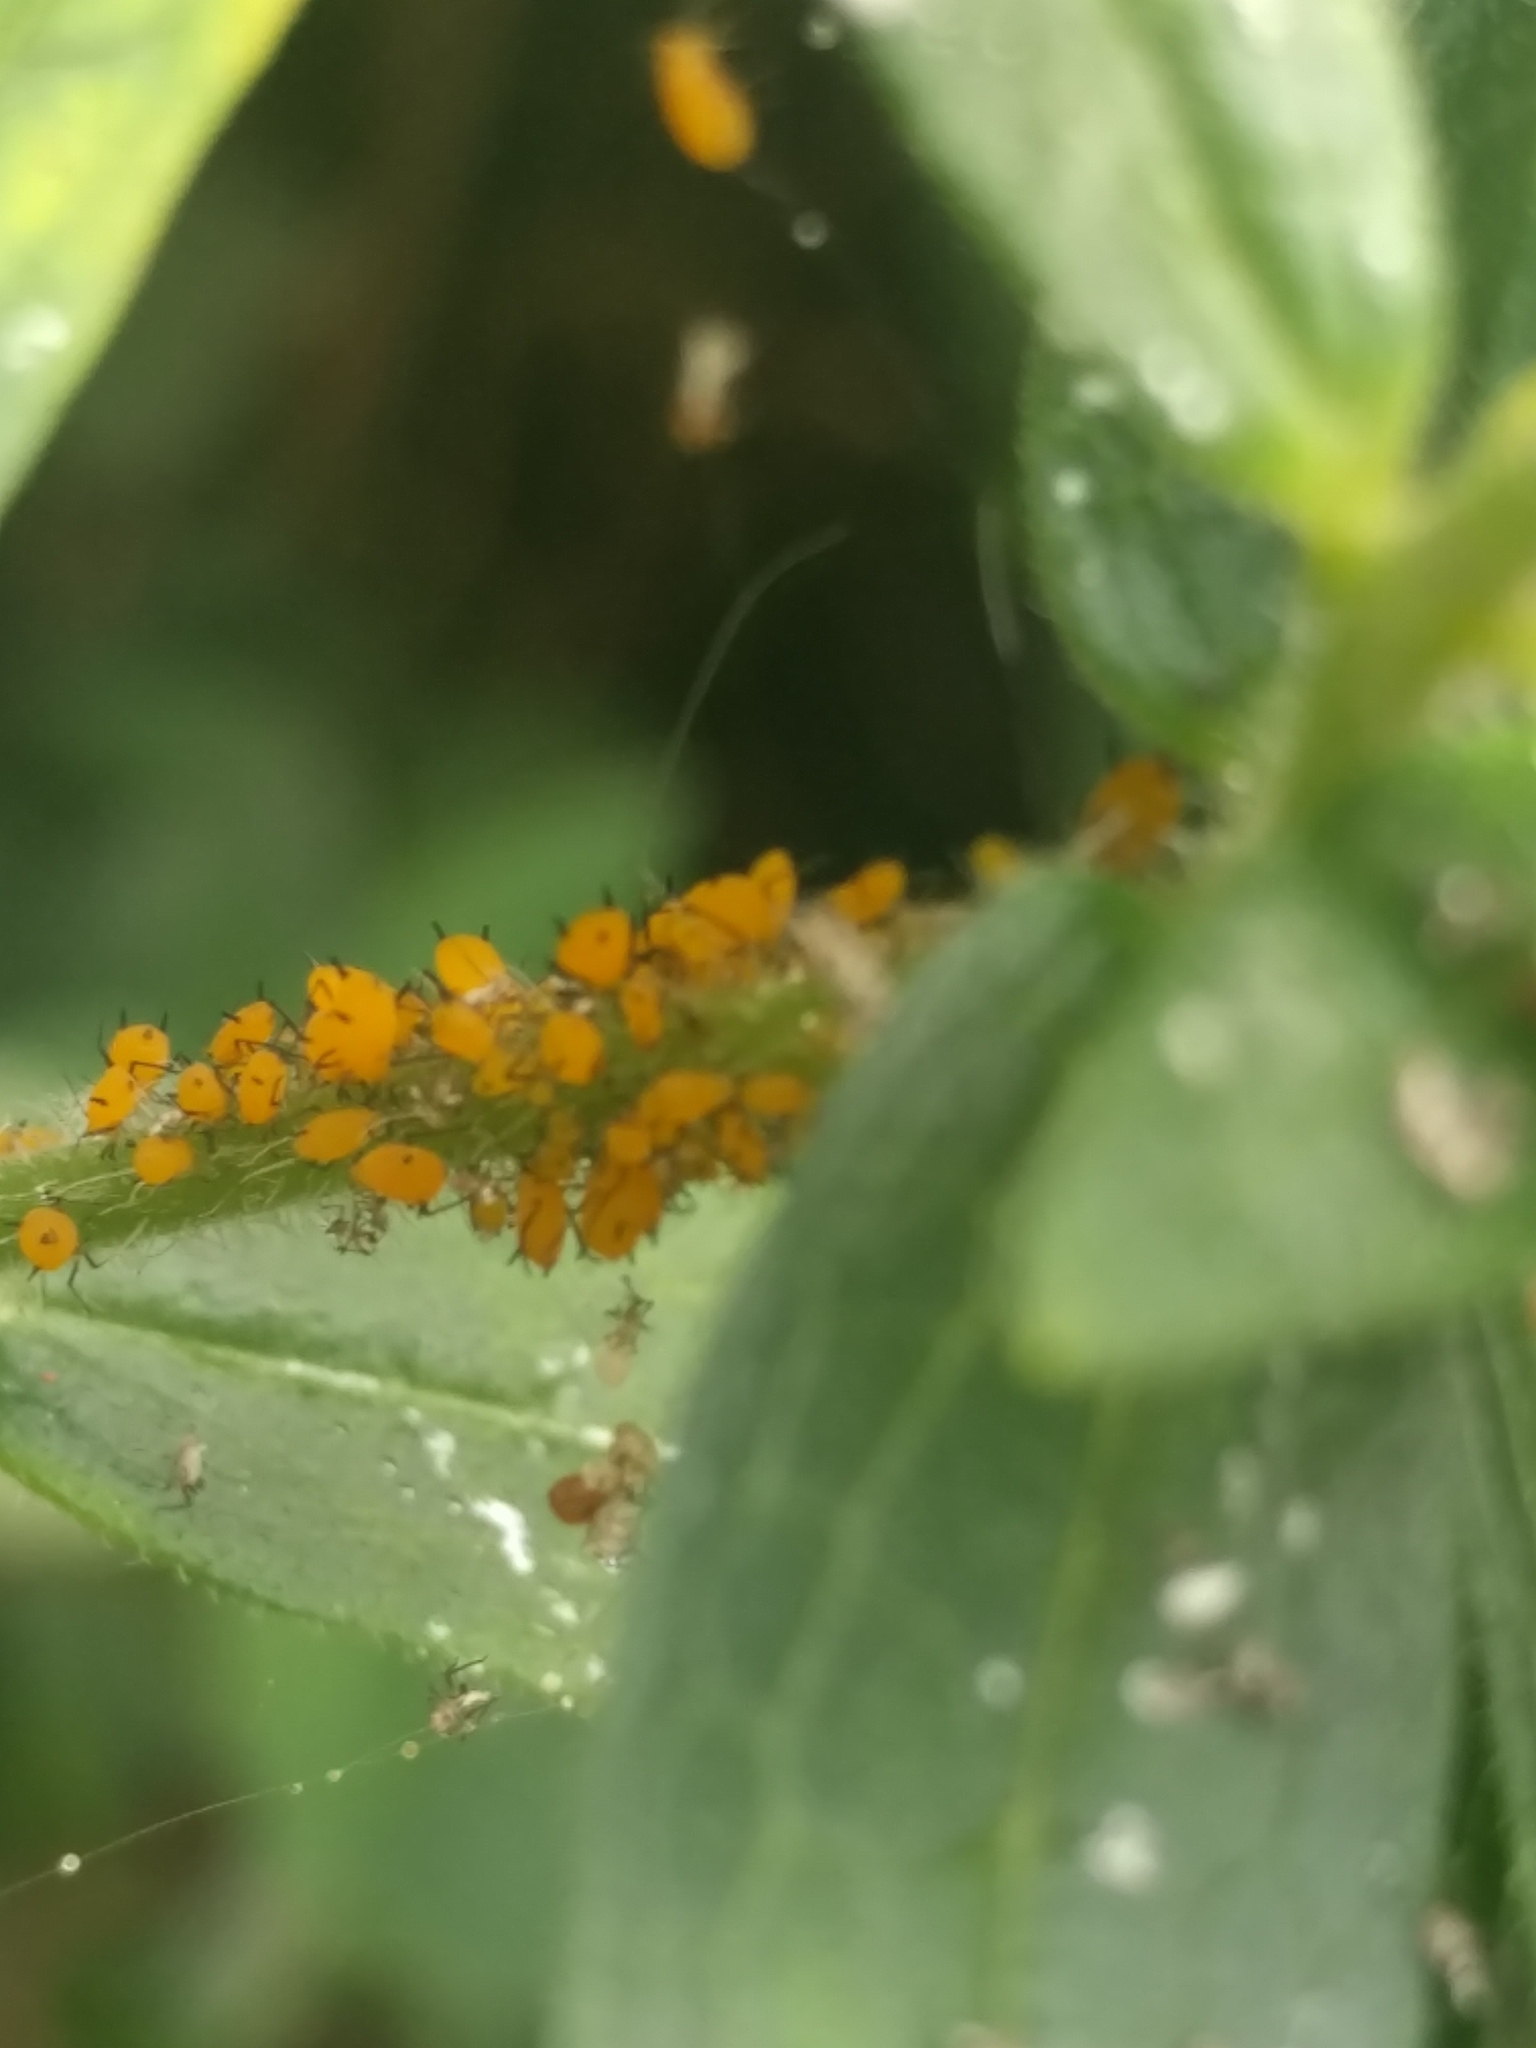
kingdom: Animalia
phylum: Arthropoda
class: Insecta
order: Hemiptera
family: Aphididae
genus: Aphis
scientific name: Aphis nerii
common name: Oleander aphid
